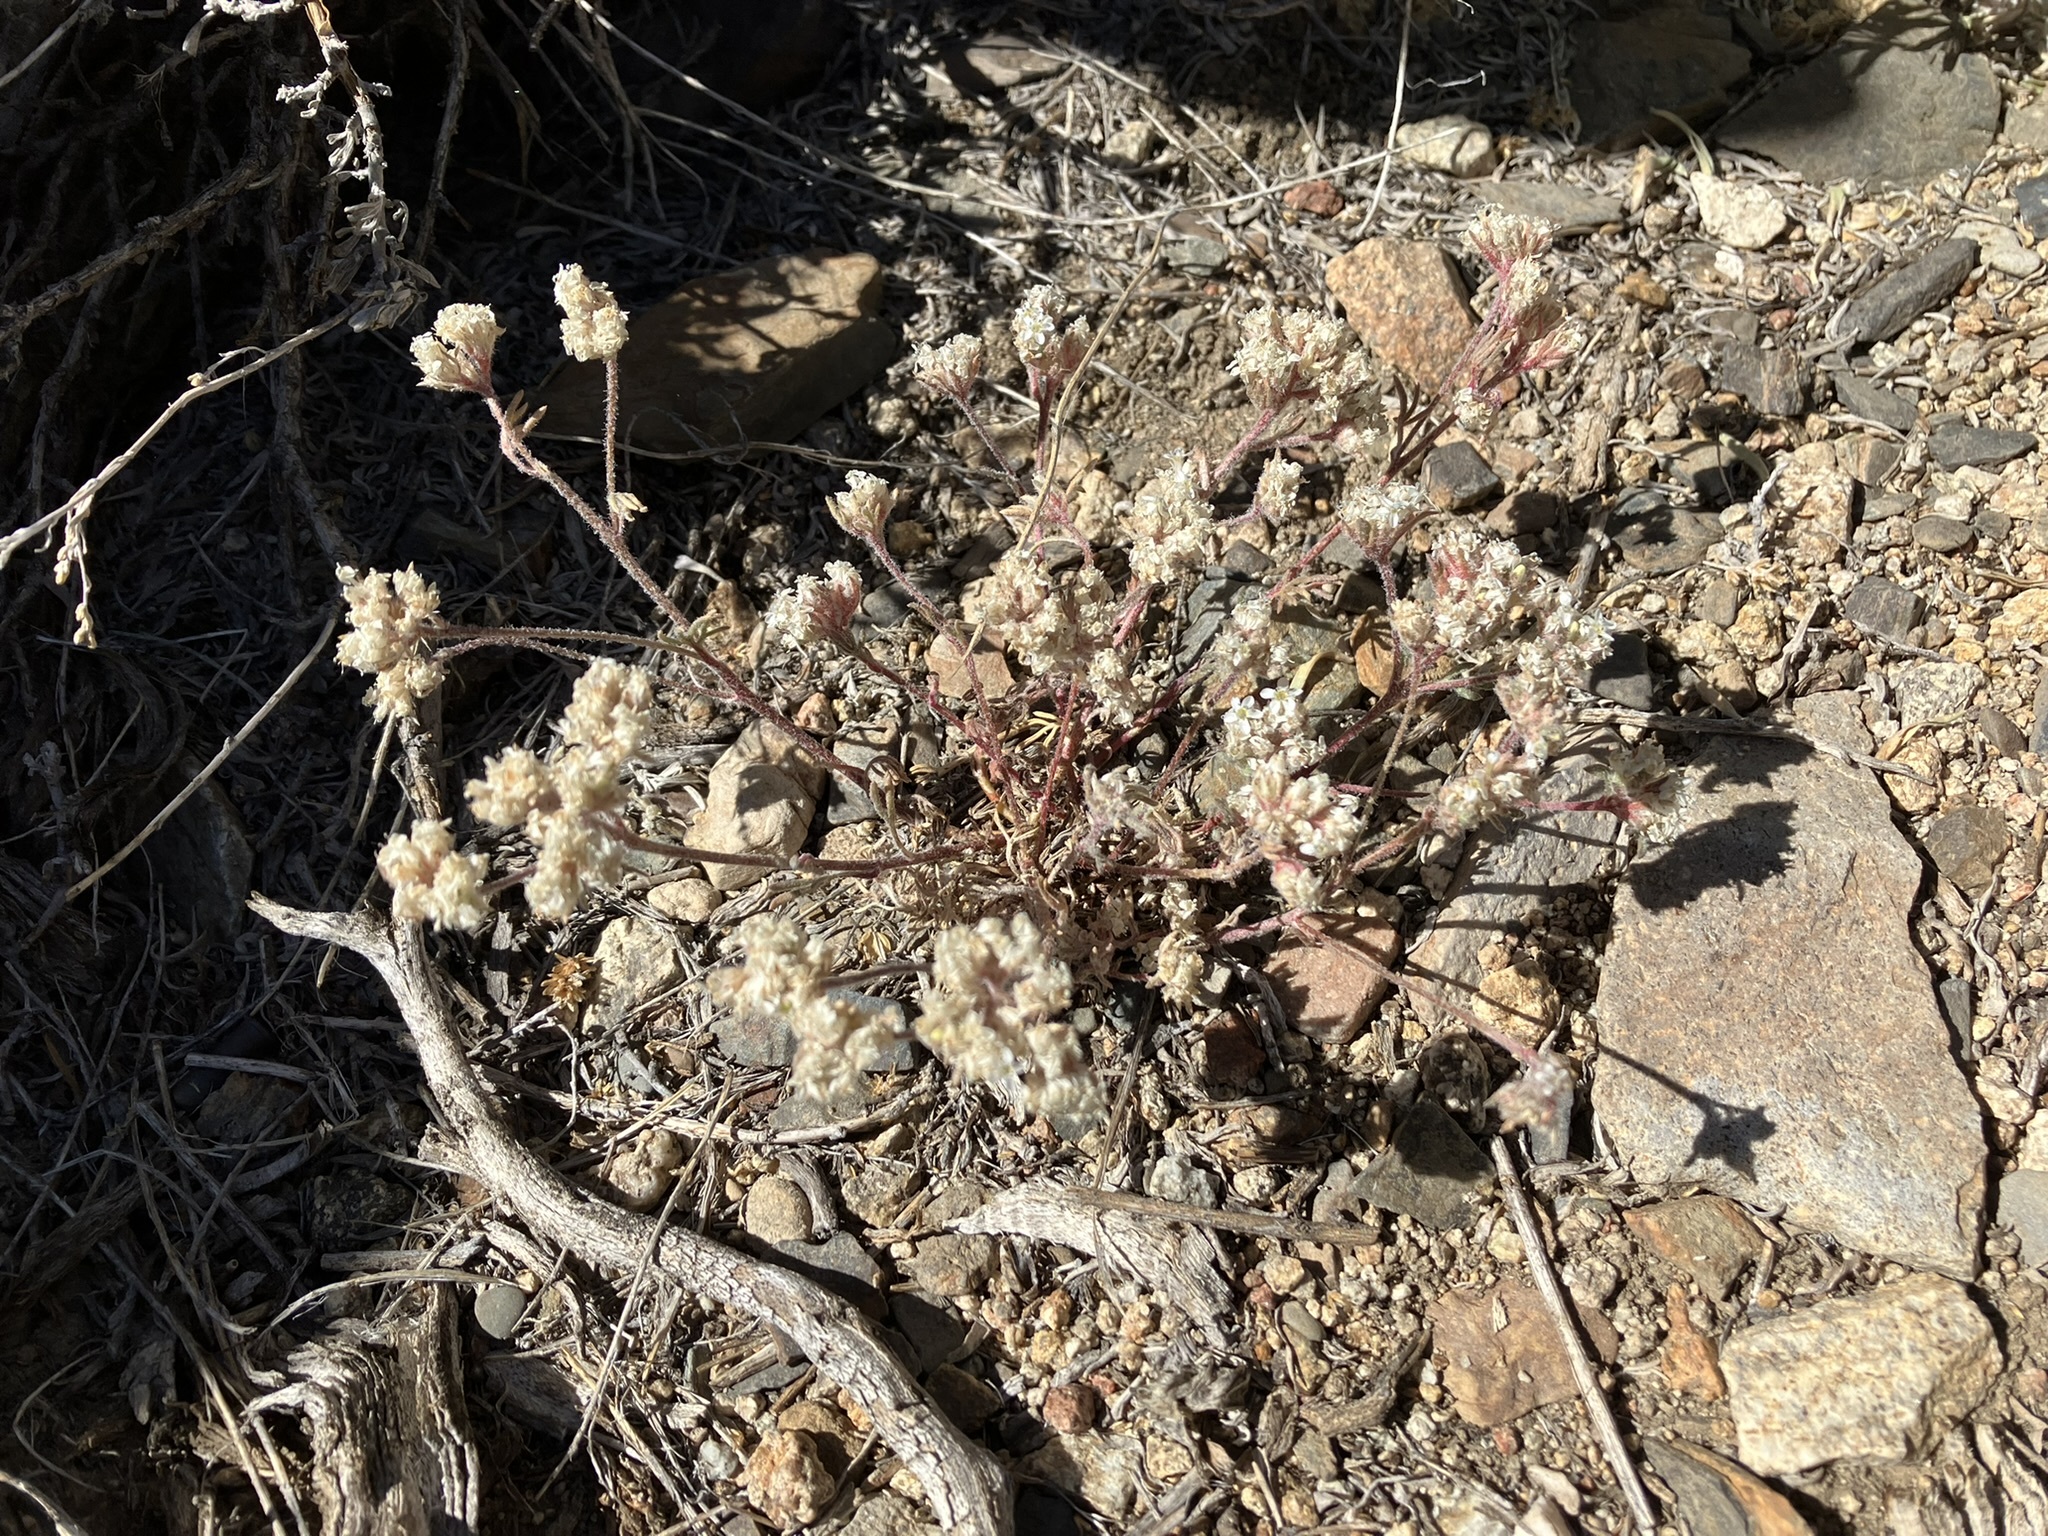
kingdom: Plantae
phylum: Tracheophyta
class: Magnoliopsida
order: Ericales
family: Polemoniaceae
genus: Ipomopsis
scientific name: Ipomopsis congesta
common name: Ball-head gilia
